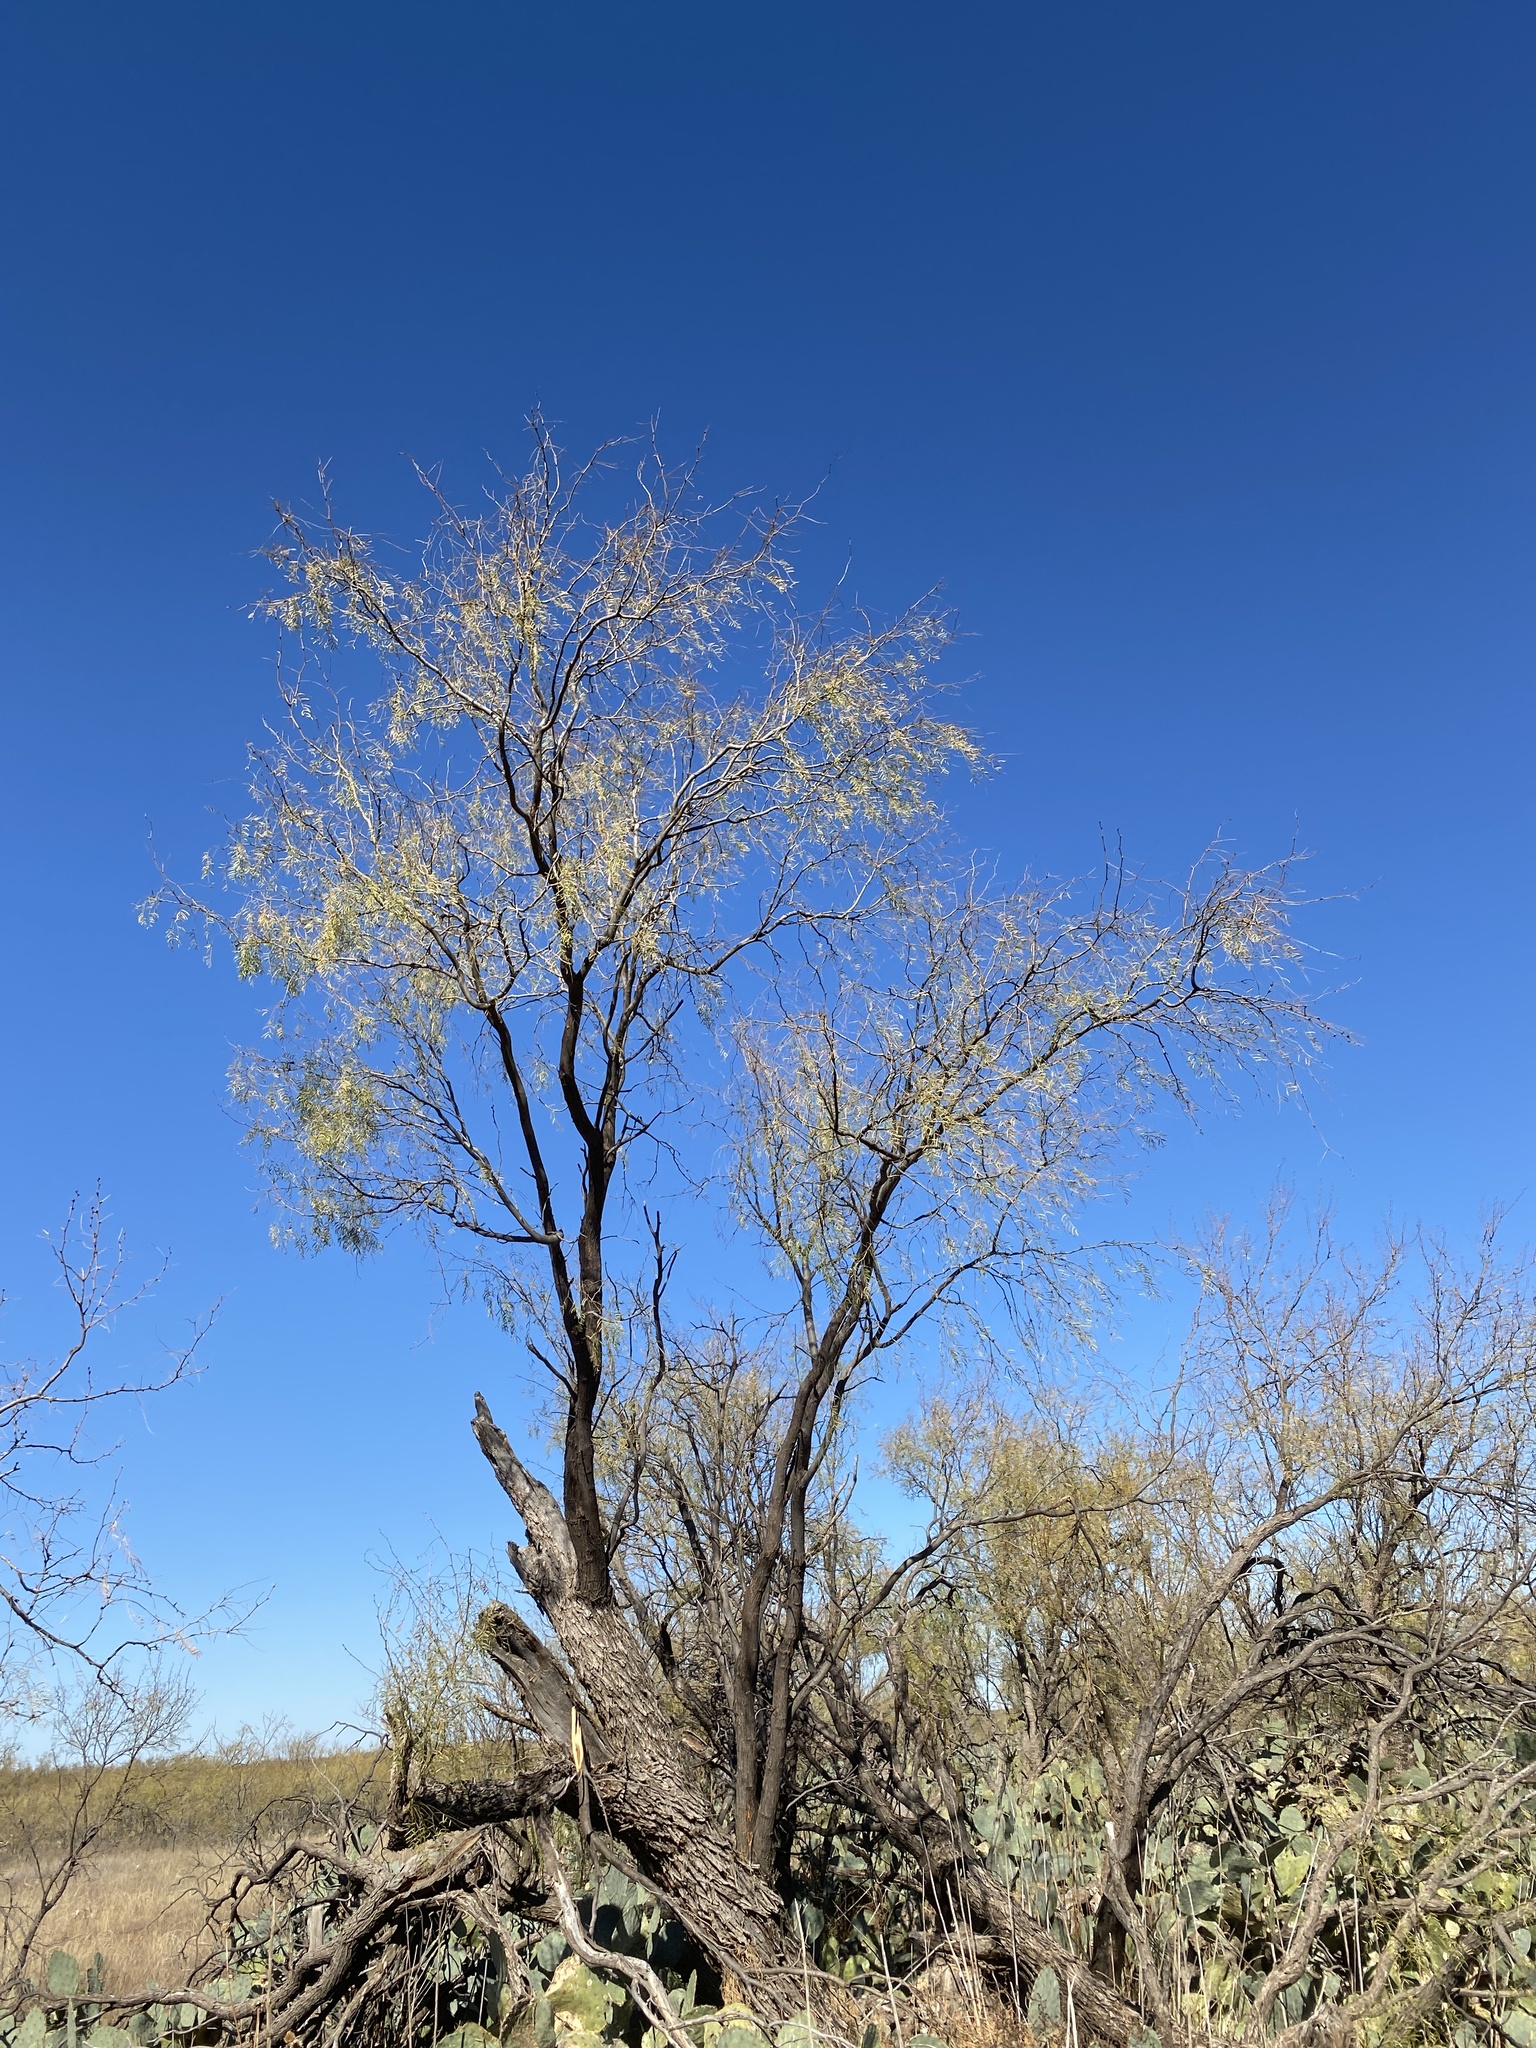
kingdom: Plantae
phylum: Tracheophyta
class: Magnoliopsida
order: Fabales
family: Fabaceae
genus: Prosopis
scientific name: Prosopis glandulosa
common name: Honey mesquite
